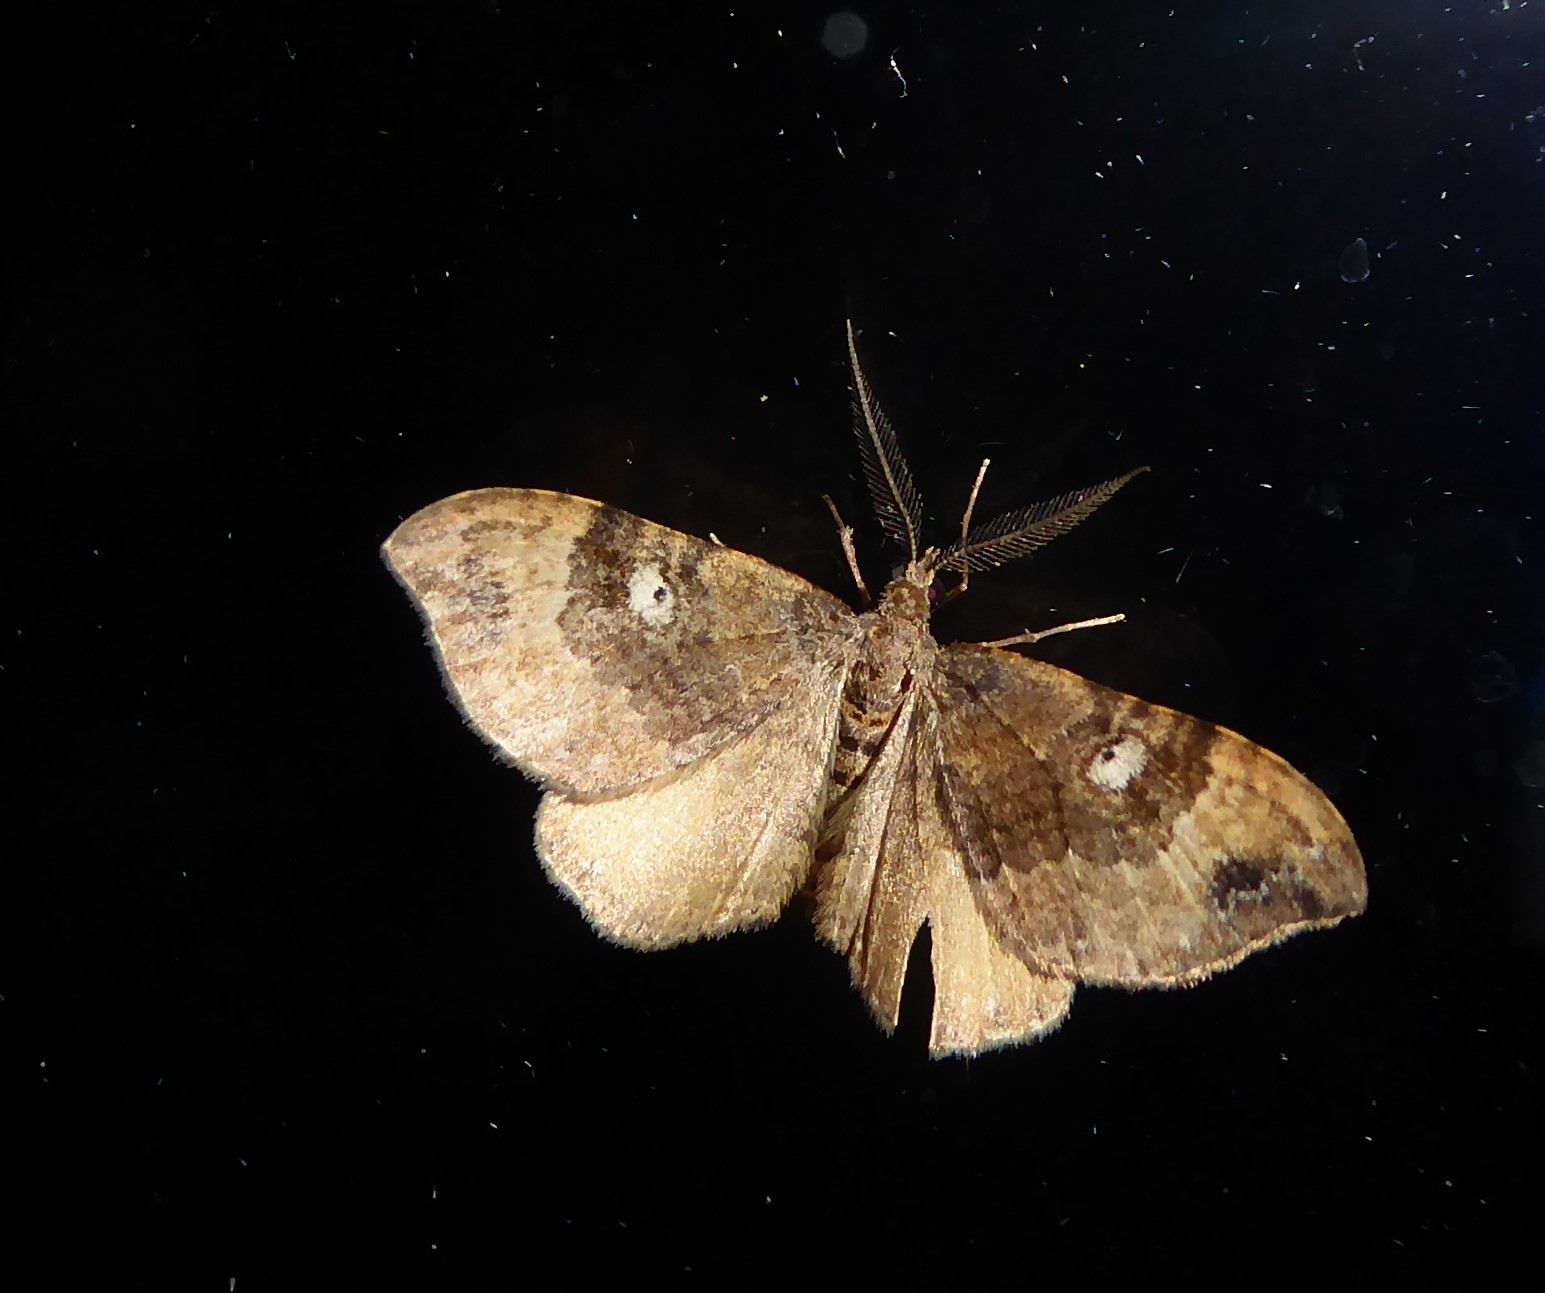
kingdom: Animalia
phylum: Arthropoda
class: Insecta
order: Lepidoptera
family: Geometridae
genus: Homodotis
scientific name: Homodotis megaspilata
